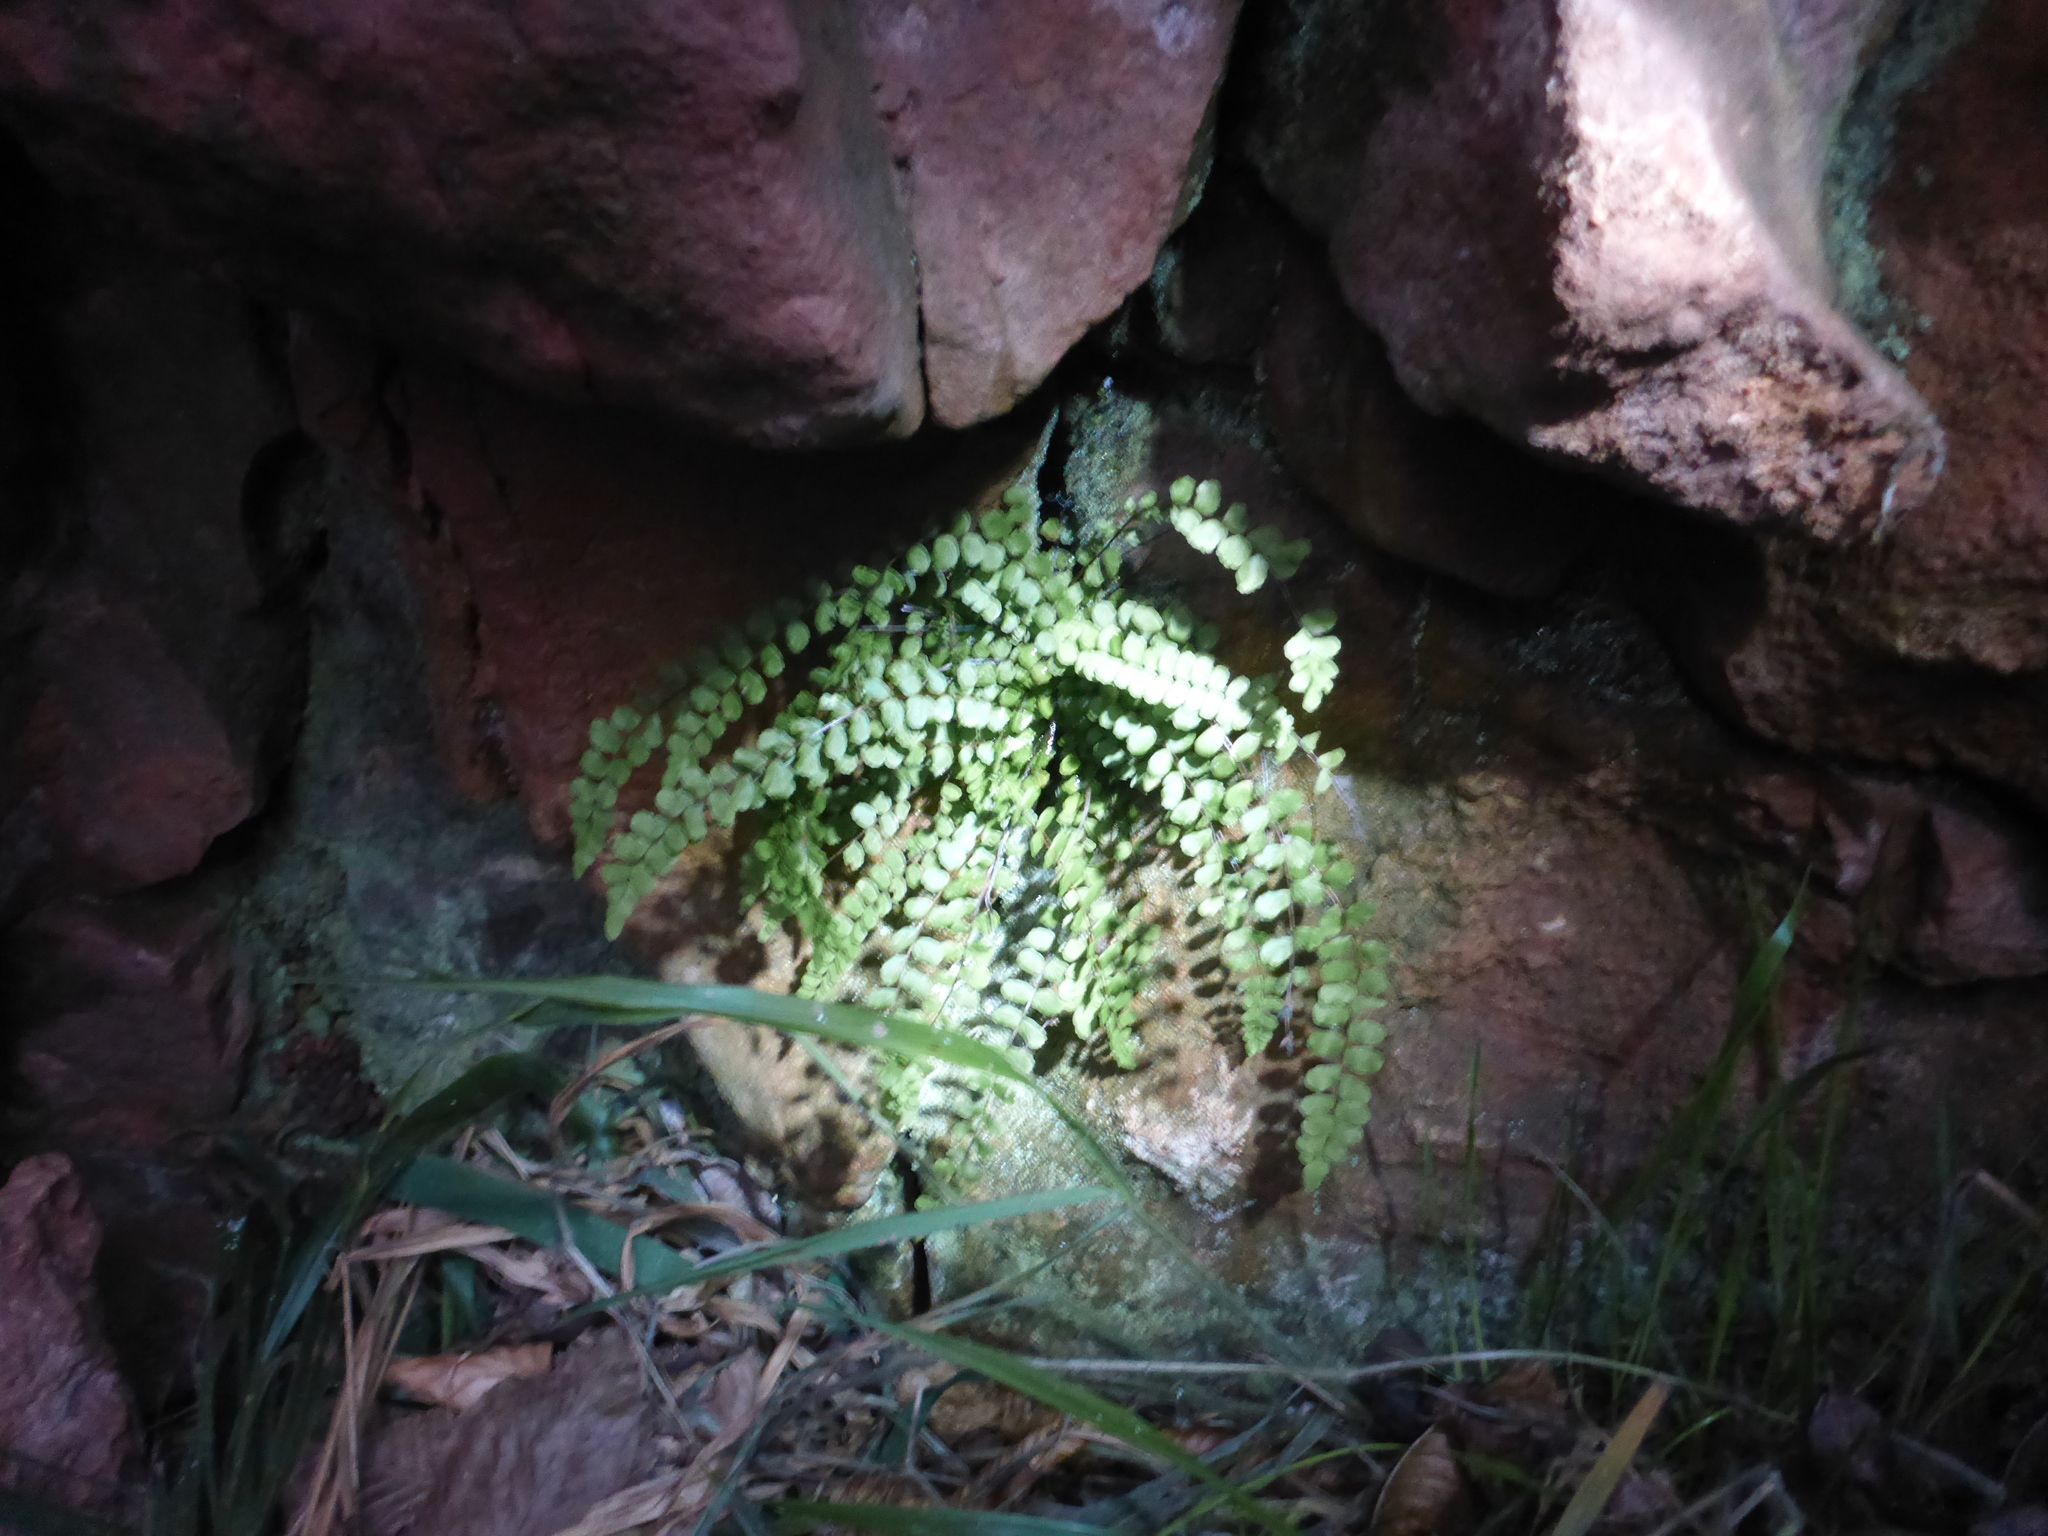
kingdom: Plantae
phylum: Tracheophyta
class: Polypodiopsida
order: Polypodiales
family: Aspleniaceae
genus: Asplenium
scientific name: Asplenium trichomanes
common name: Maidenhair spleenwort
